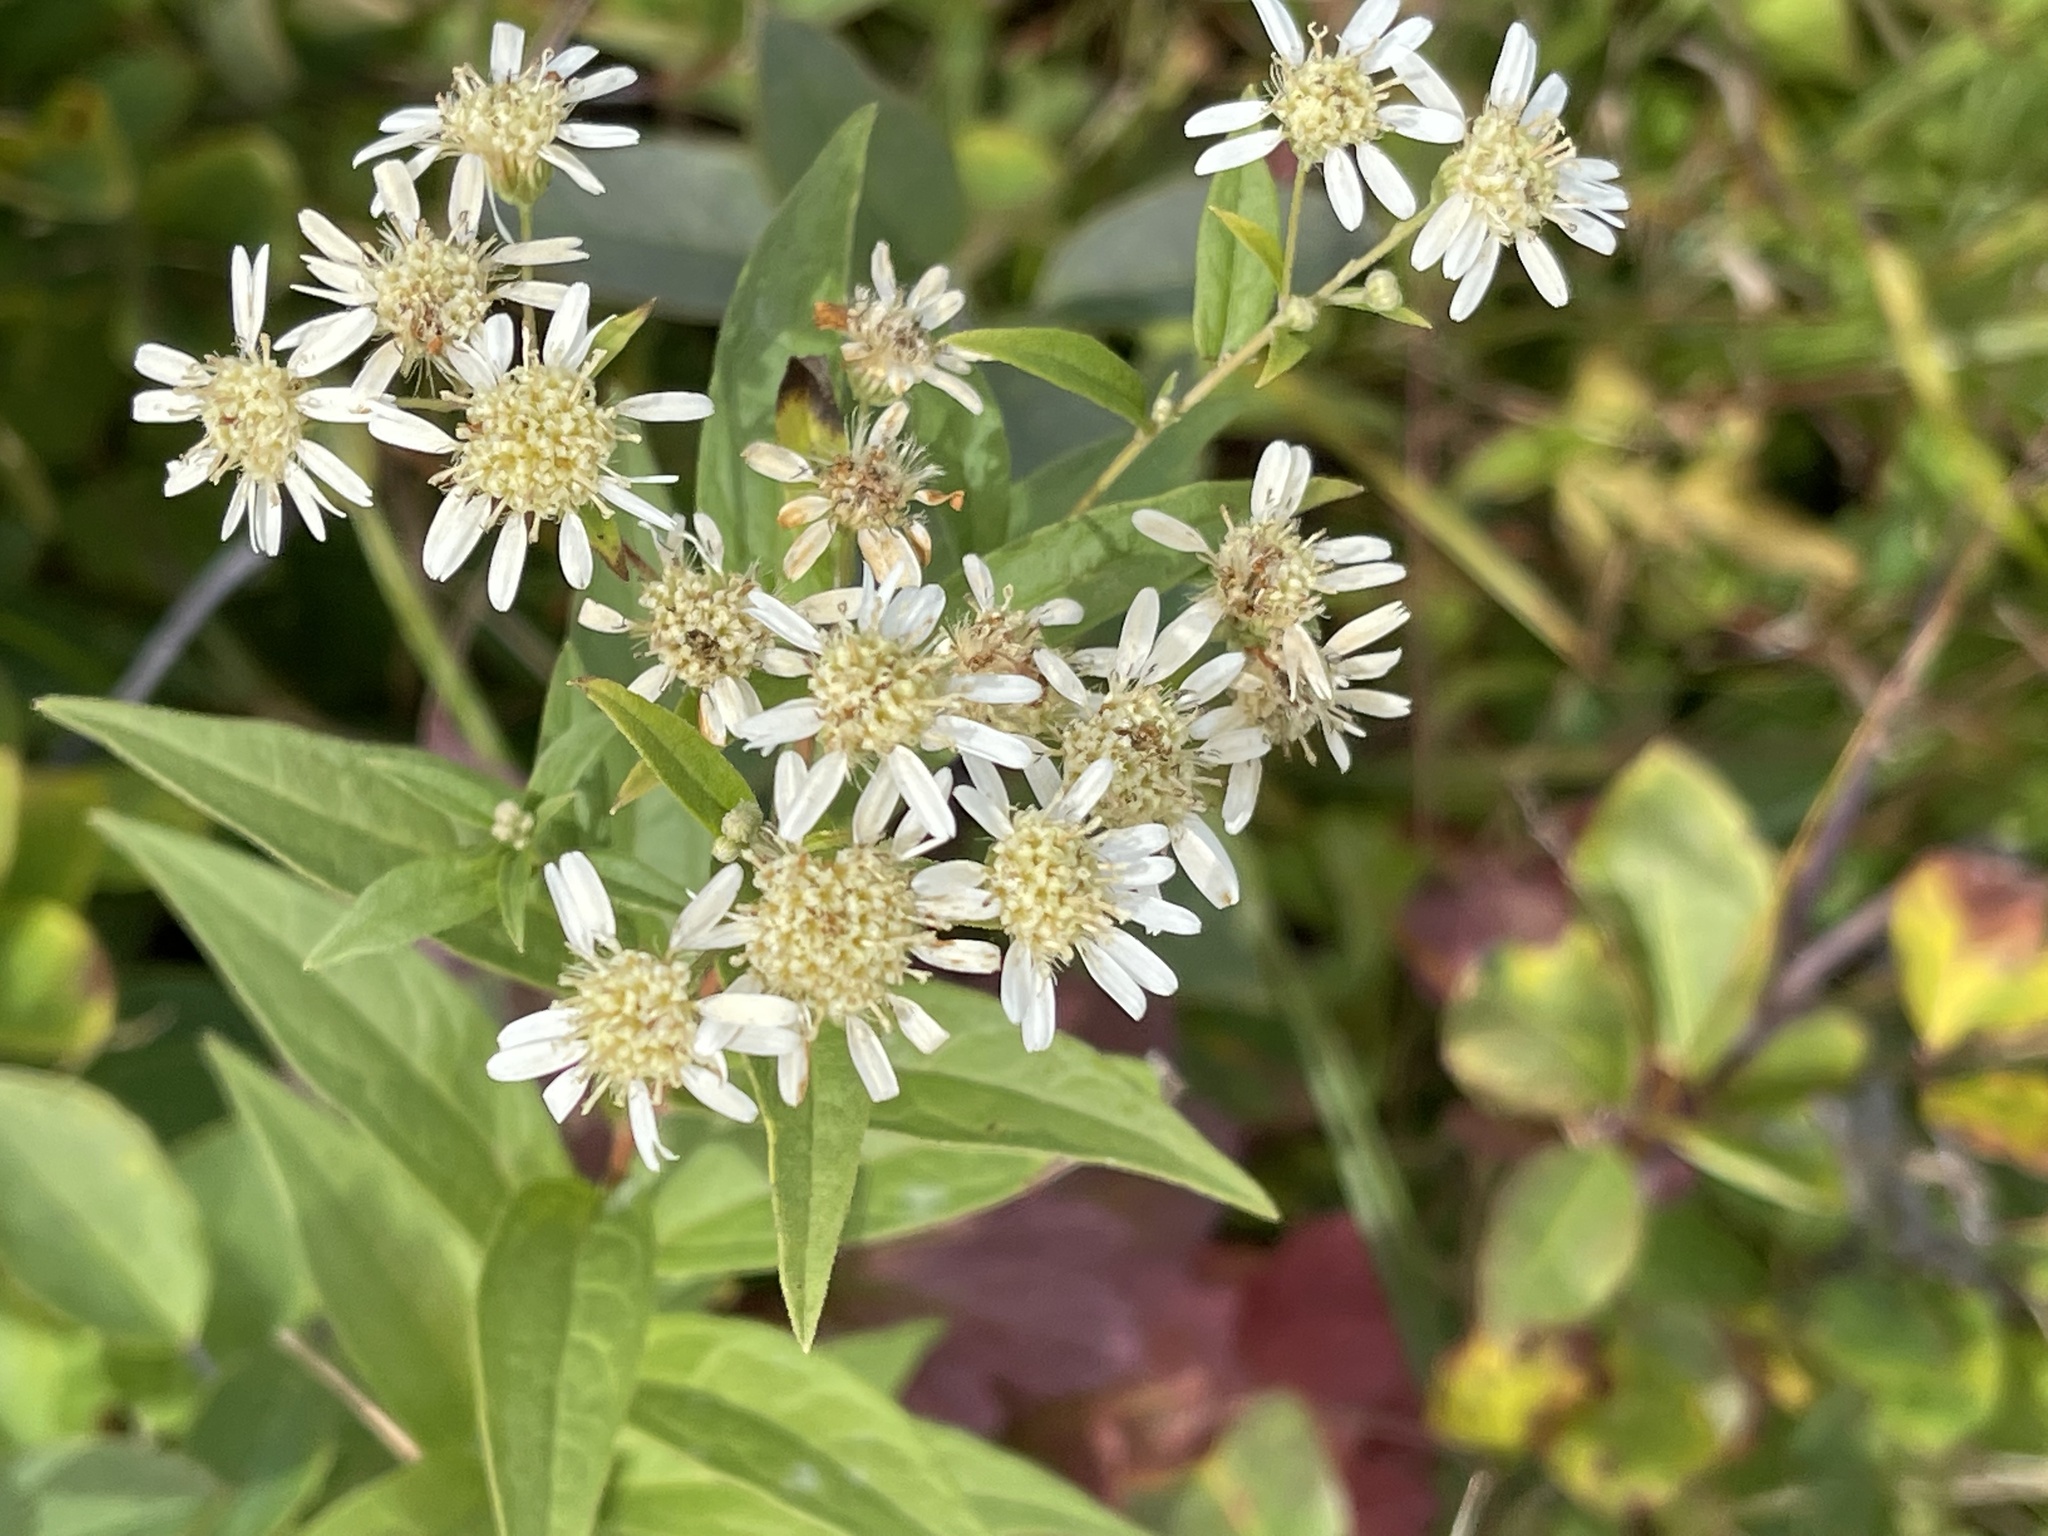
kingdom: Plantae
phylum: Tracheophyta
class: Magnoliopsida
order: Asterales
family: Asteraceae
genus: Doellingeria
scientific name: Doellingeria umbellata
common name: Flat-top white aster
